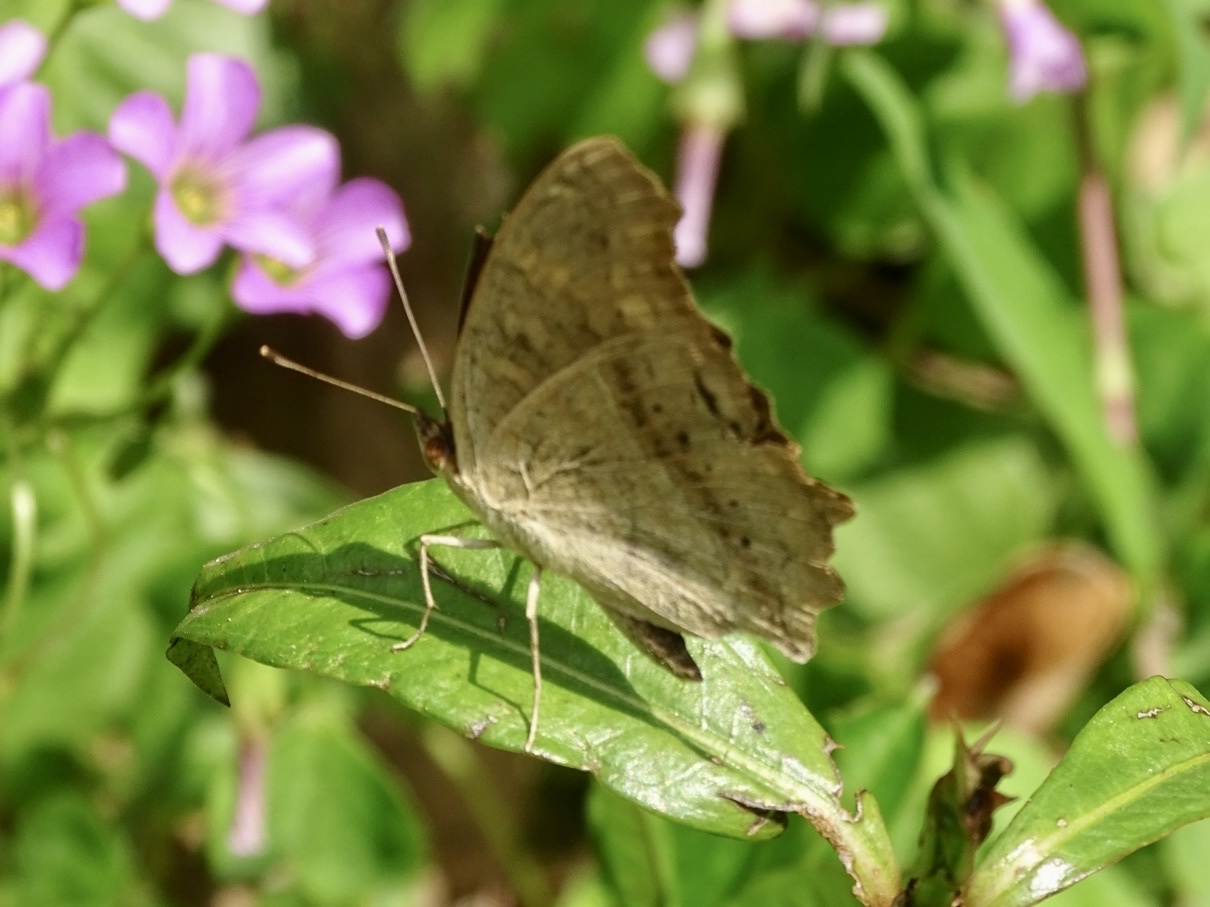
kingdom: Animalia
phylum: Arthropoda
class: Insecta
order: Lepidoptera
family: Nymphalidae
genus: Junonia
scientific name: Junonia lemonias
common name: Lemon pansy
